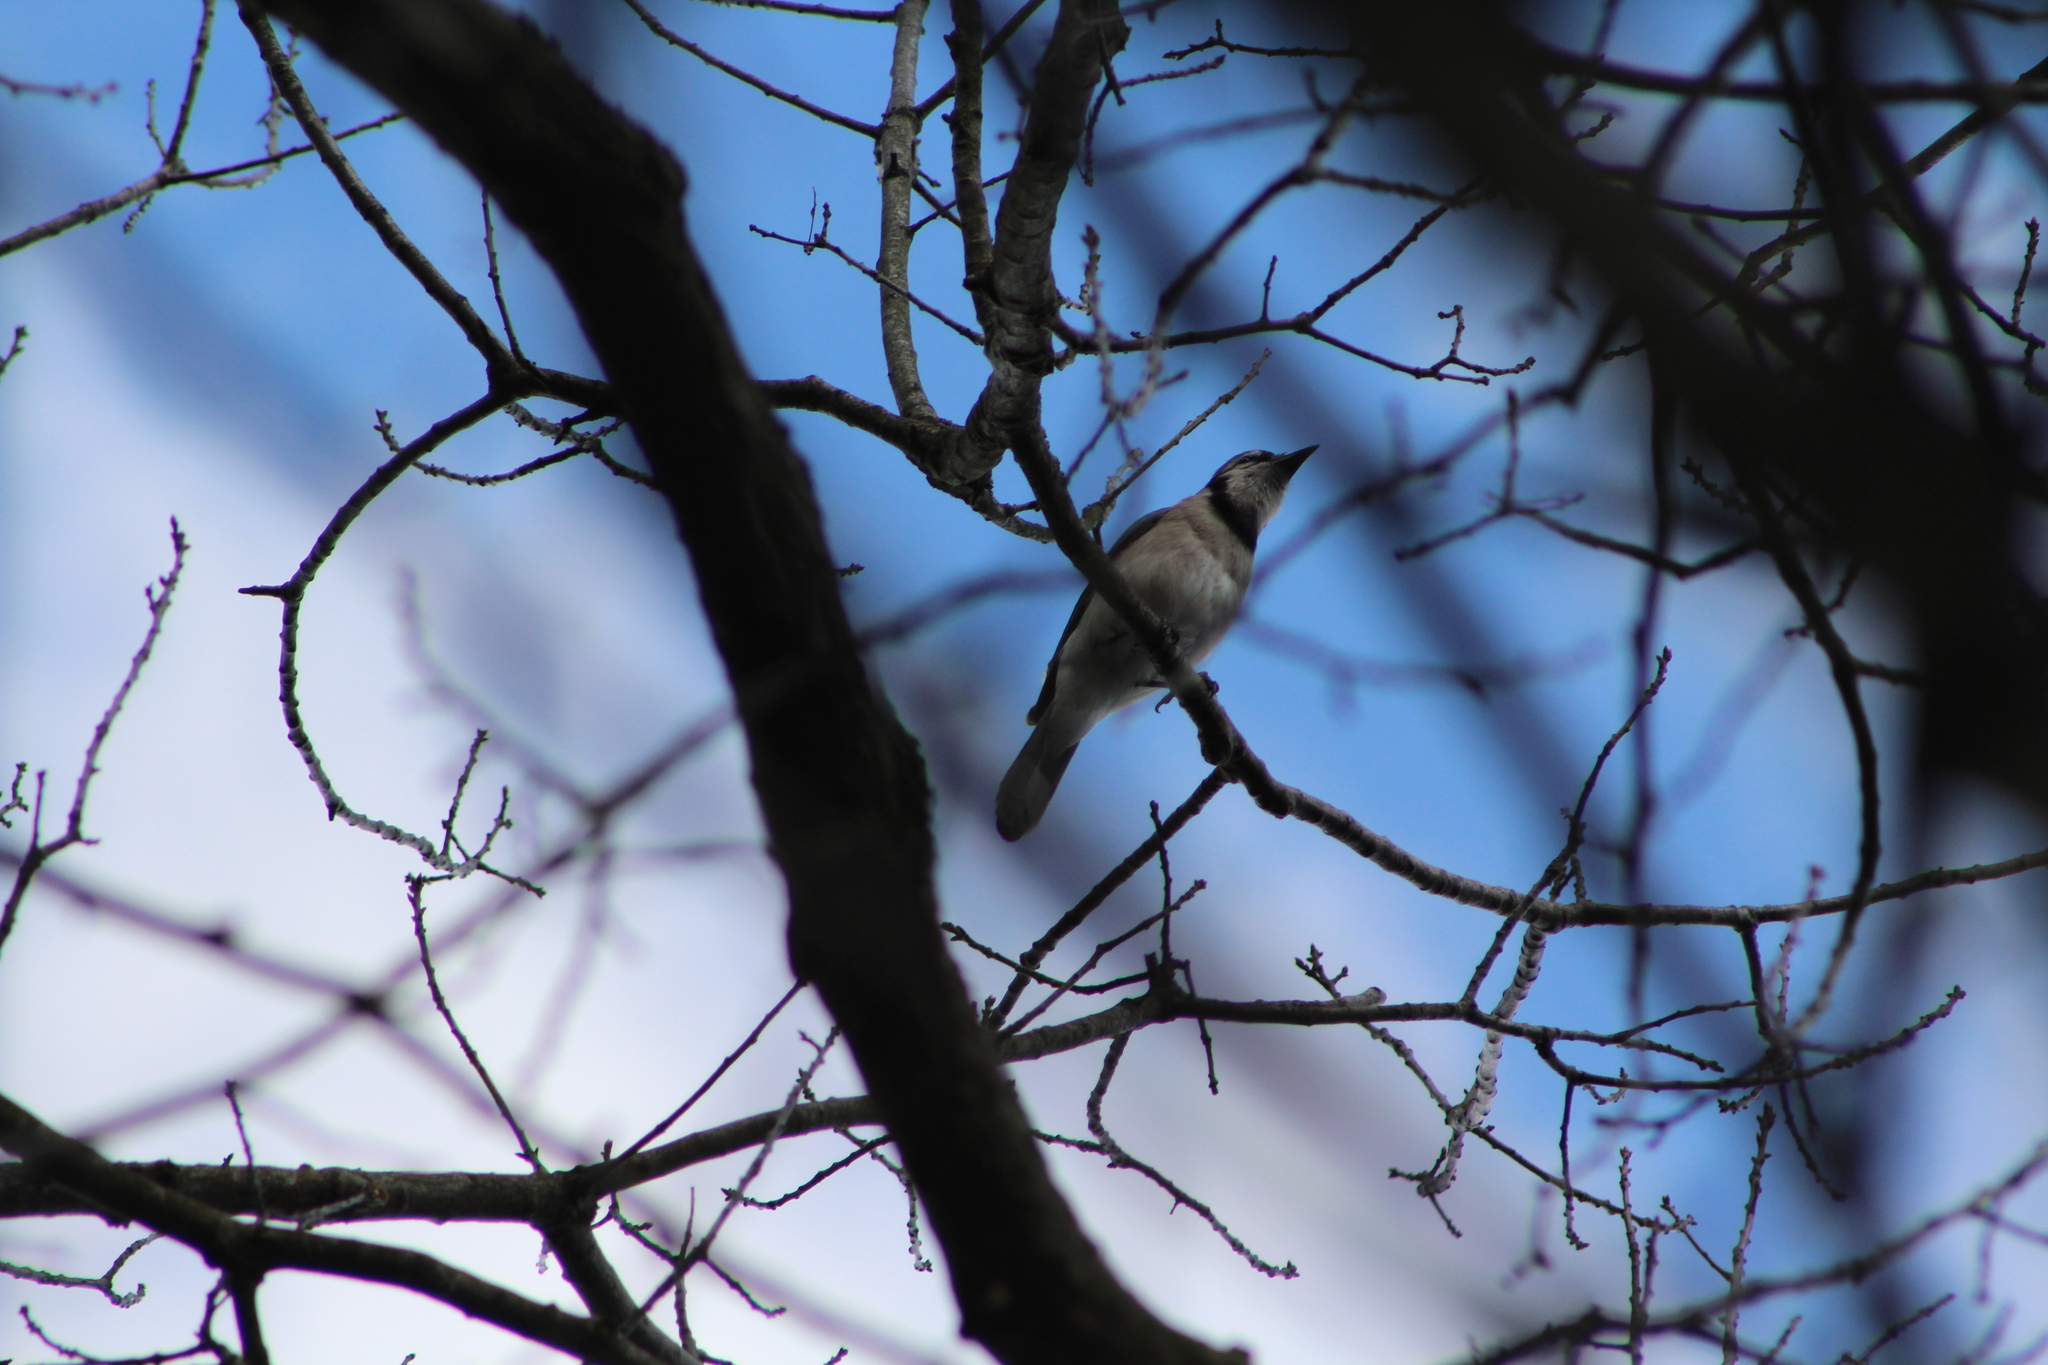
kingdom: Animalia
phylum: Chordata
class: Aves
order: Passeriformes
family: Corvidae
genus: Cyanocitta
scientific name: Cyanocitta cristata
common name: Blue jay
